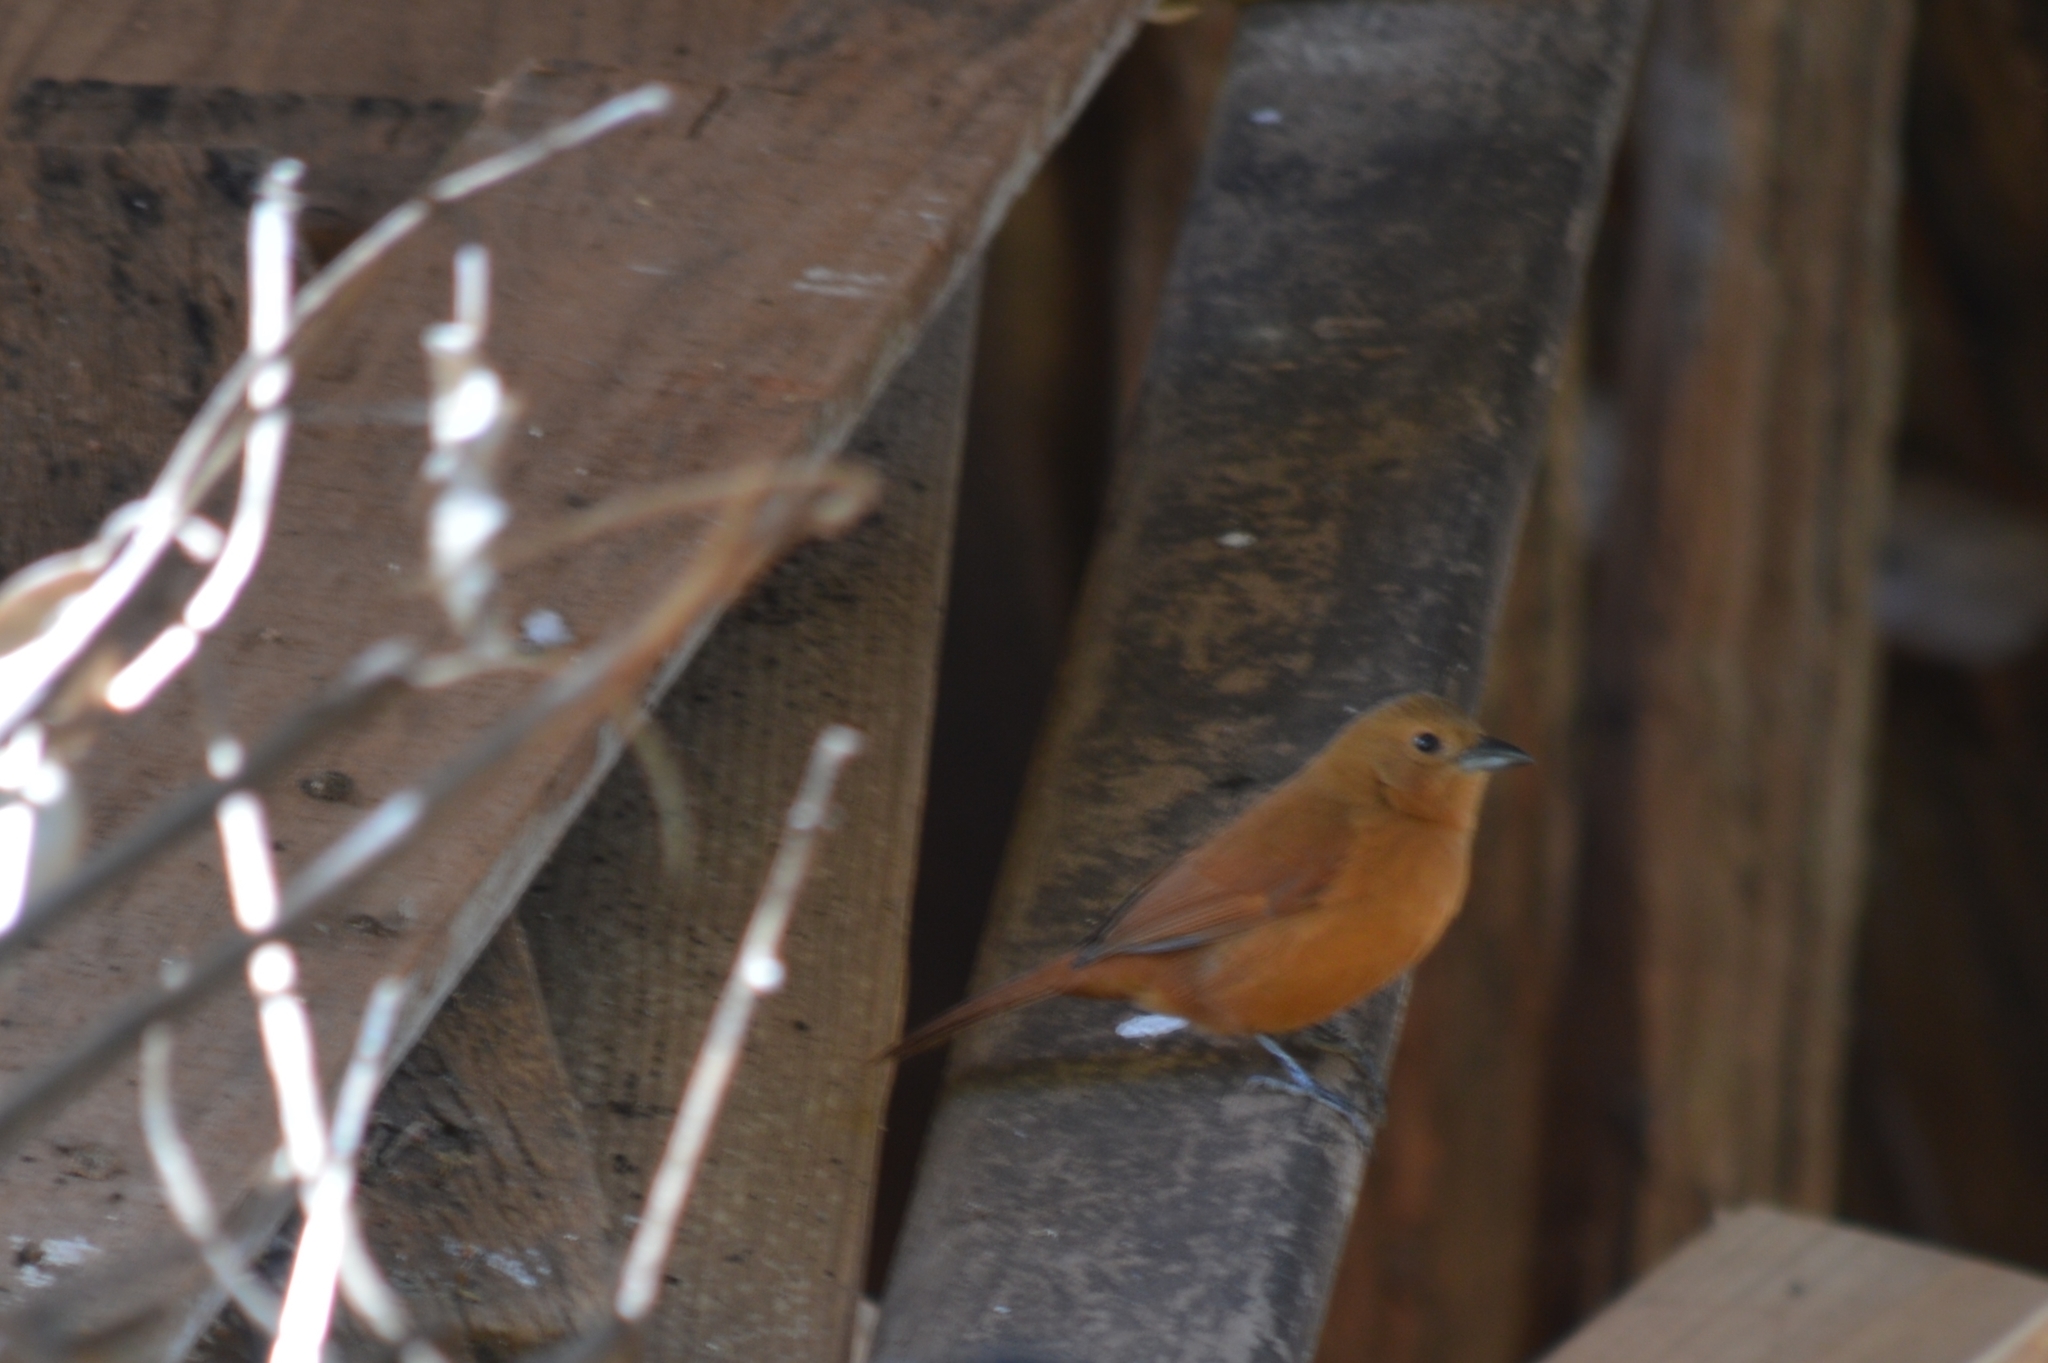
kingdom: Animalia
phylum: Chordata
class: Aves
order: Passeriformes
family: Thraupidae
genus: Tachyphonus
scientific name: Tachyphonus rufus
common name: White-lined tanager
